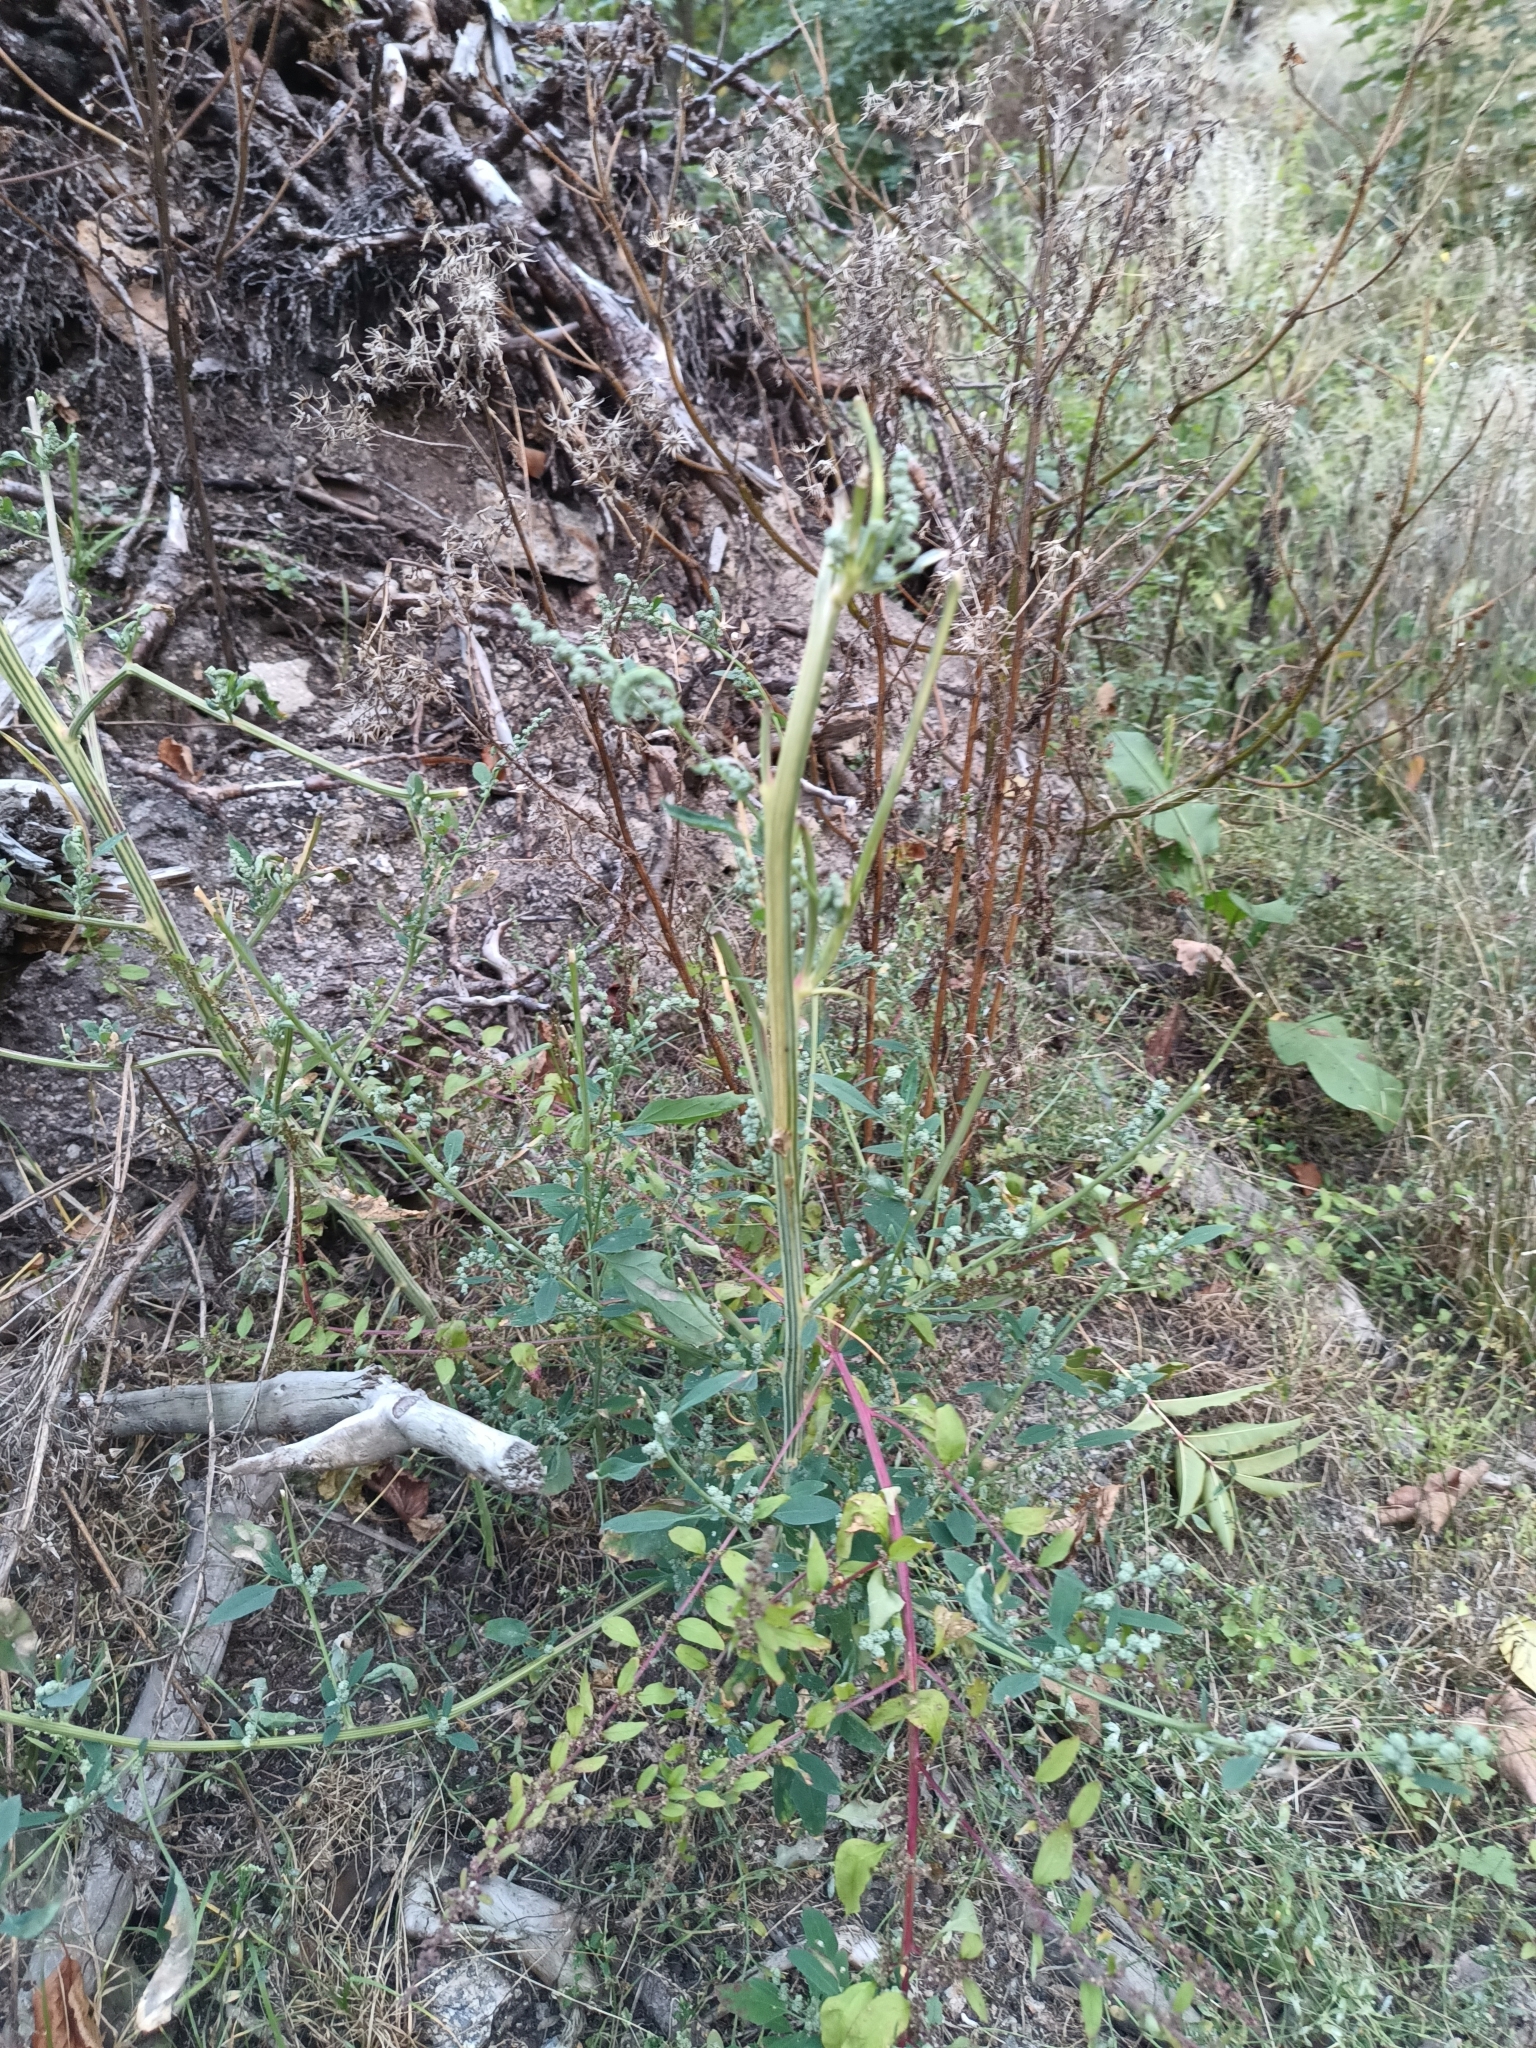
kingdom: Plantae
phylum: Tracheophyta
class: Magnoliopsida
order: Caryophyllales
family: Amaranthaceae
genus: Chenopodium
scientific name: Chenopodium album
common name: Fat-hen
